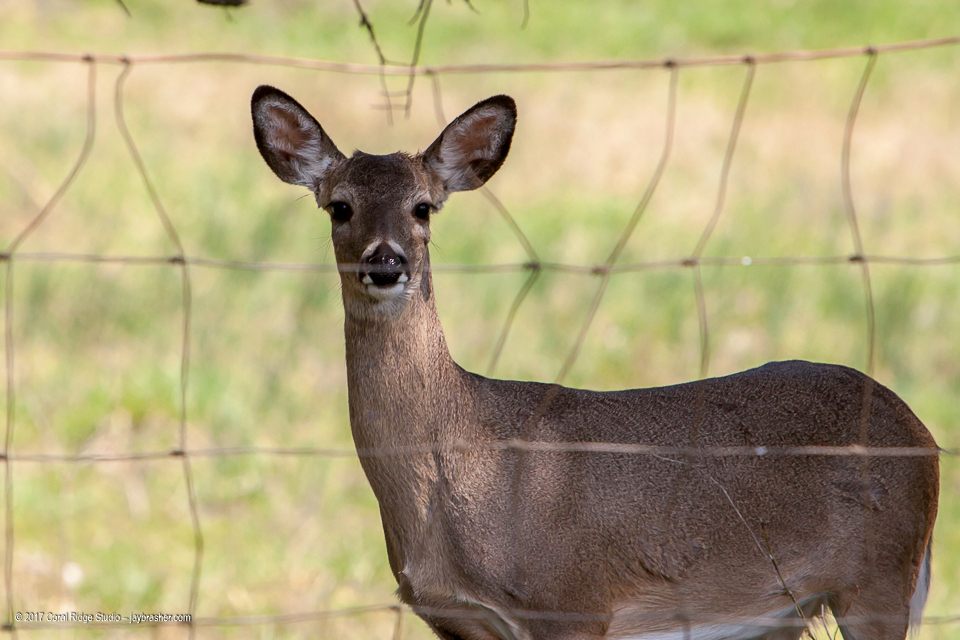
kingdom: Animalia
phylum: Chordata
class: Mammalia
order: Artiodactyla
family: Cervidae
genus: Odocoileus
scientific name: Odocoileus virginianus
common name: White-tailed deer
